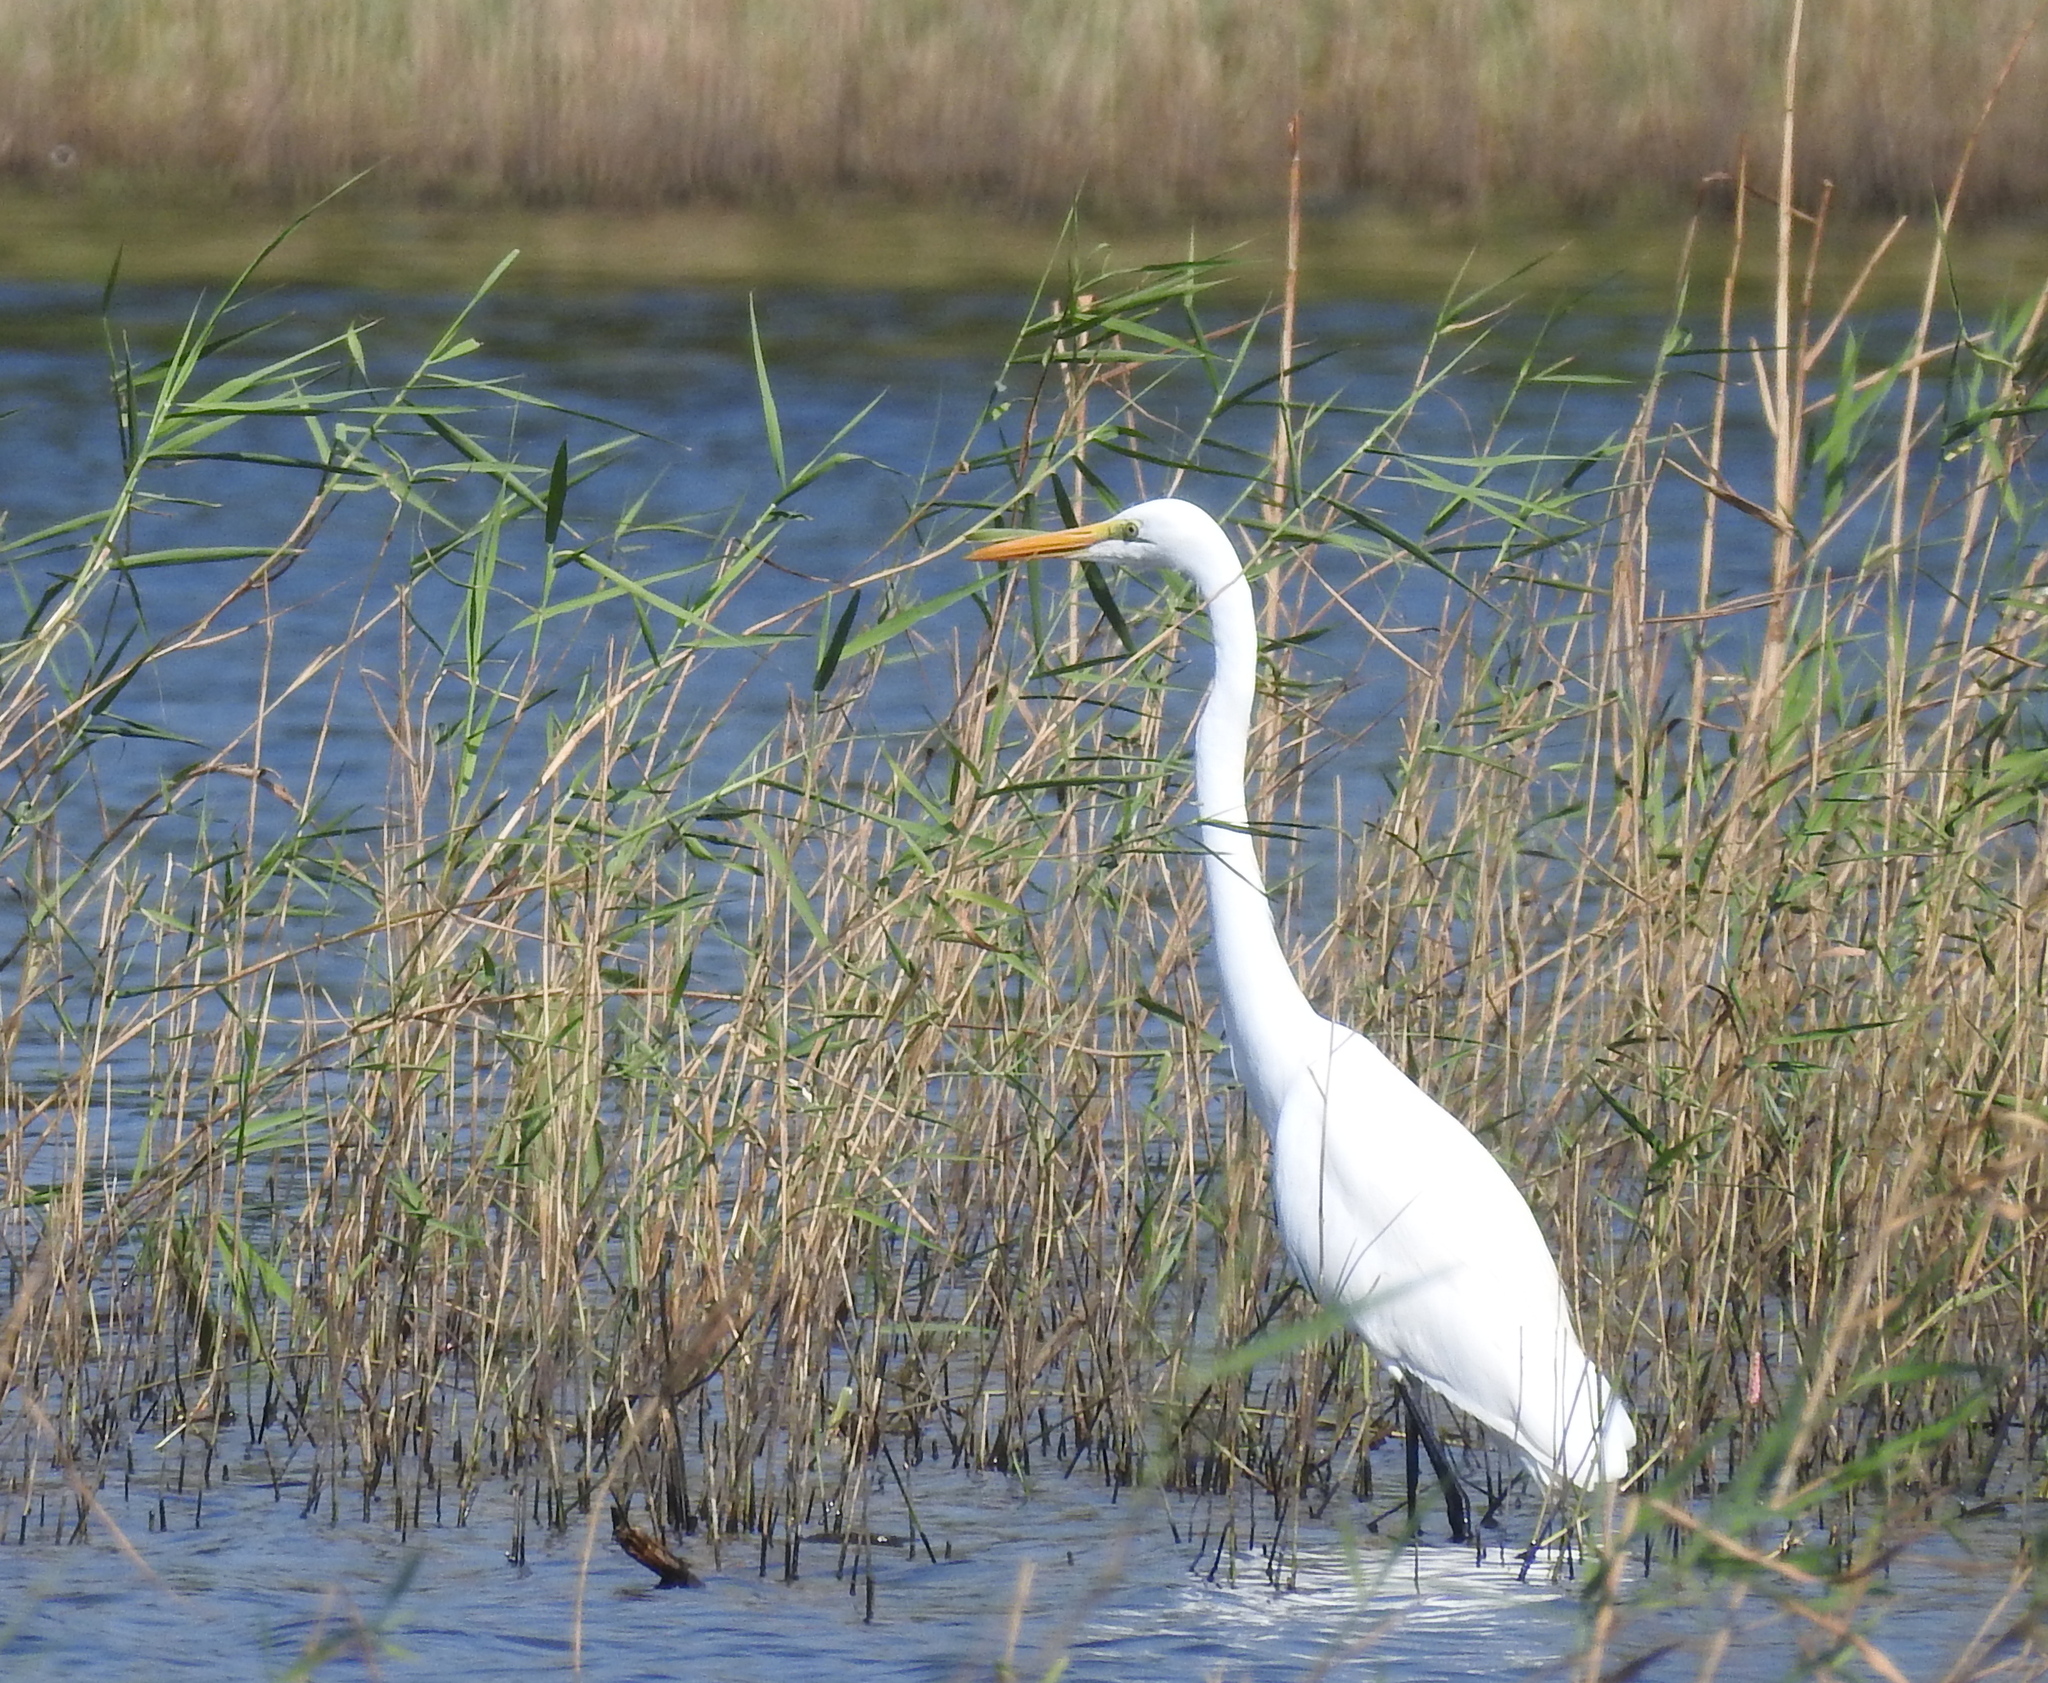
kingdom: Animalia
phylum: Chordata
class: Aves
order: Pelecaniformes
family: Ardeidae
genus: Ardea
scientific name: Ardea alba
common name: Great egret
